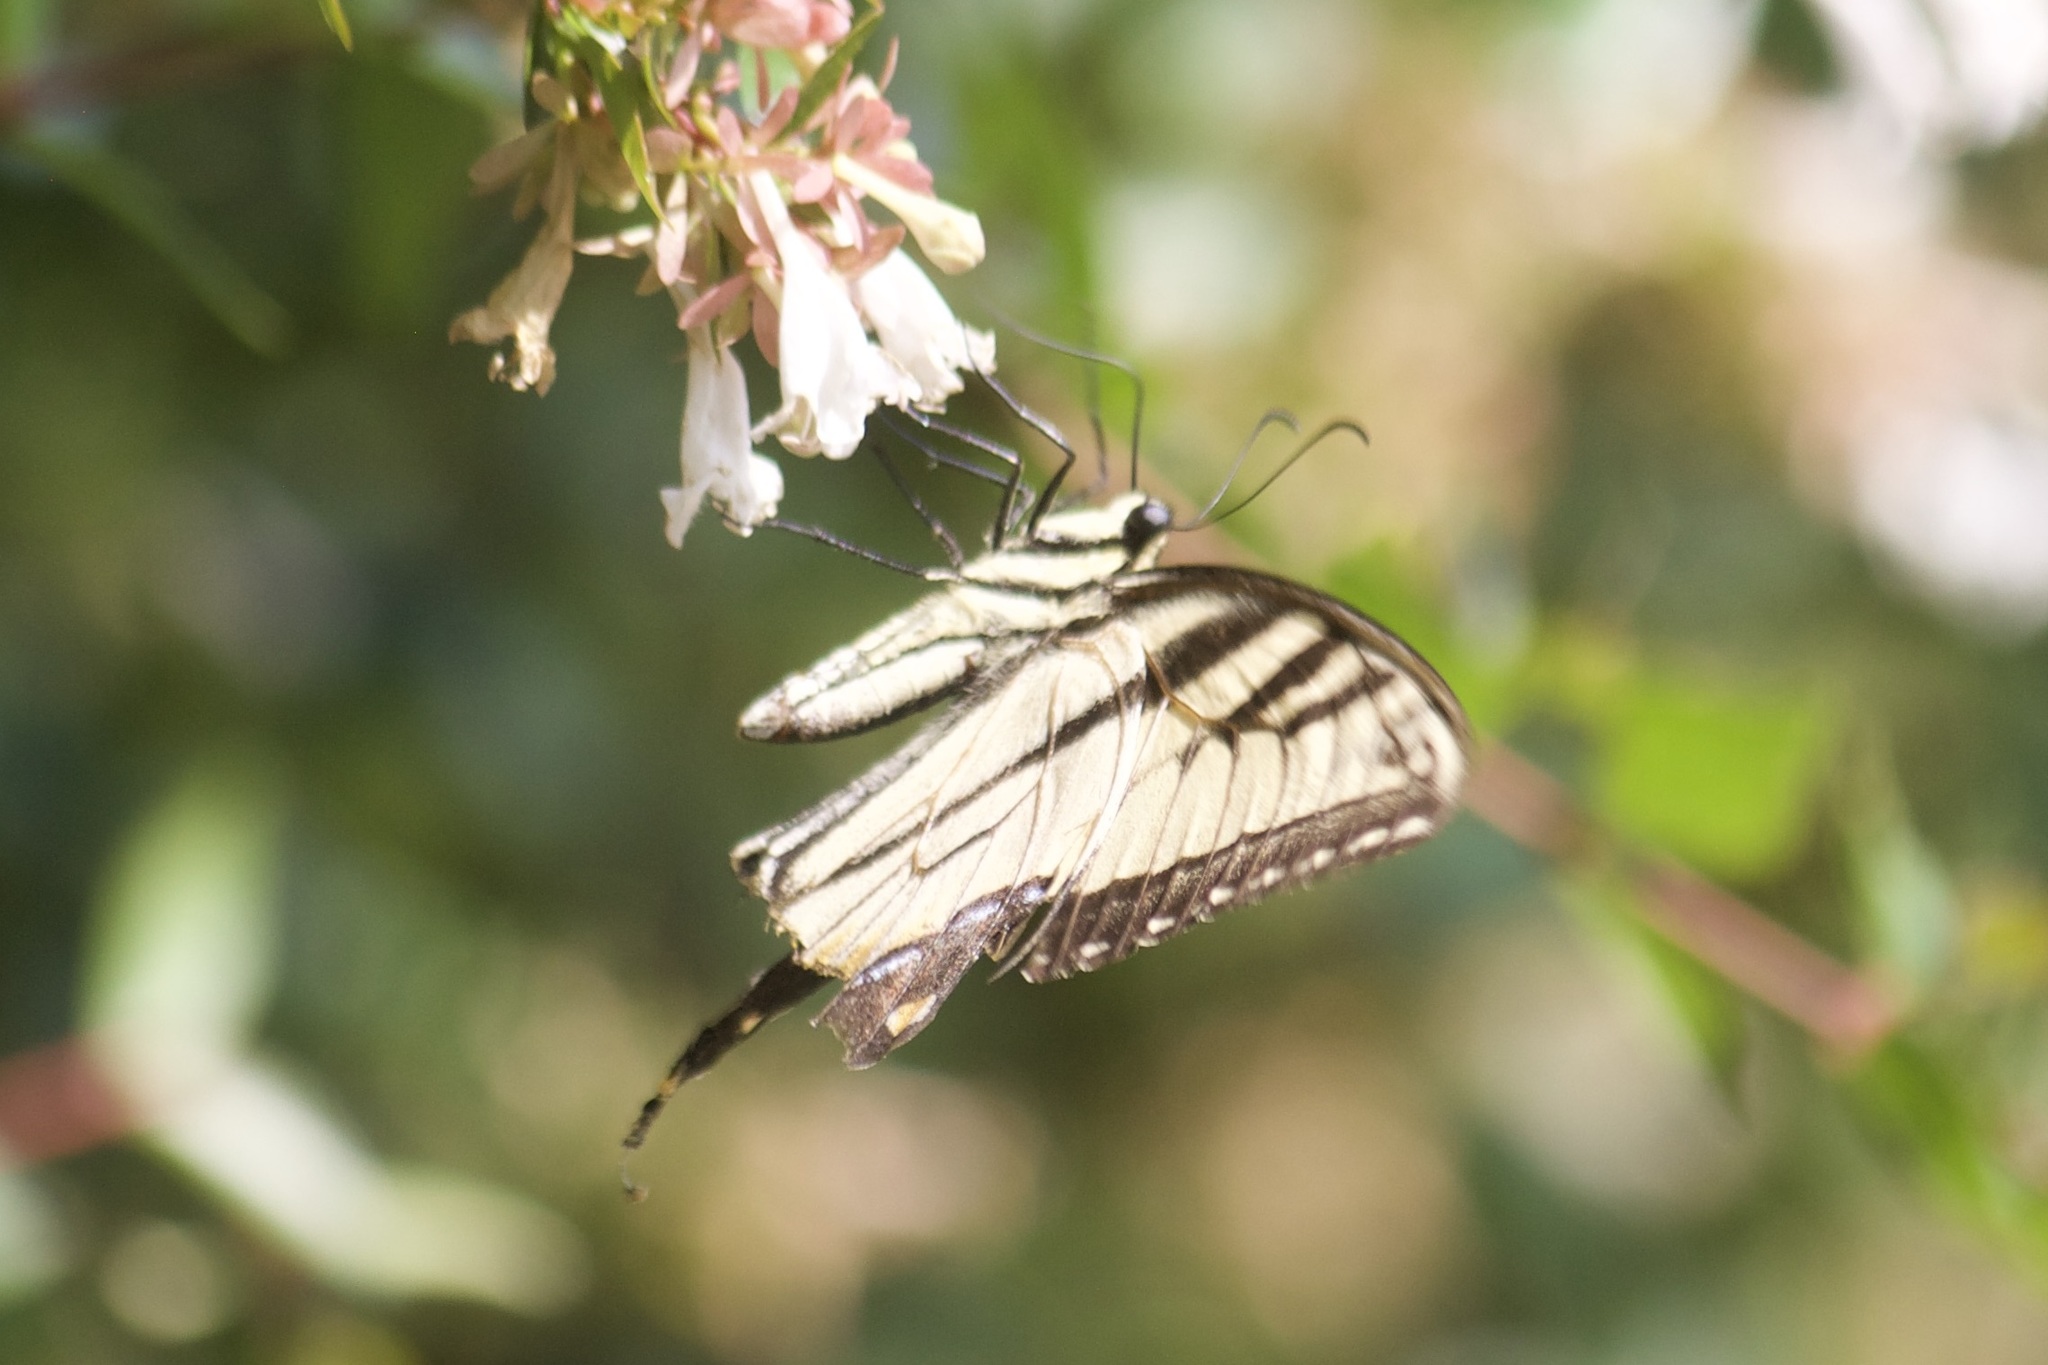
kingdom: Animalia
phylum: Arthropoda
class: Insecta
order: Lepidoptera
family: Papilionidae
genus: Papilio
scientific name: Papilio glaucus
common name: Tiger swallowtail
